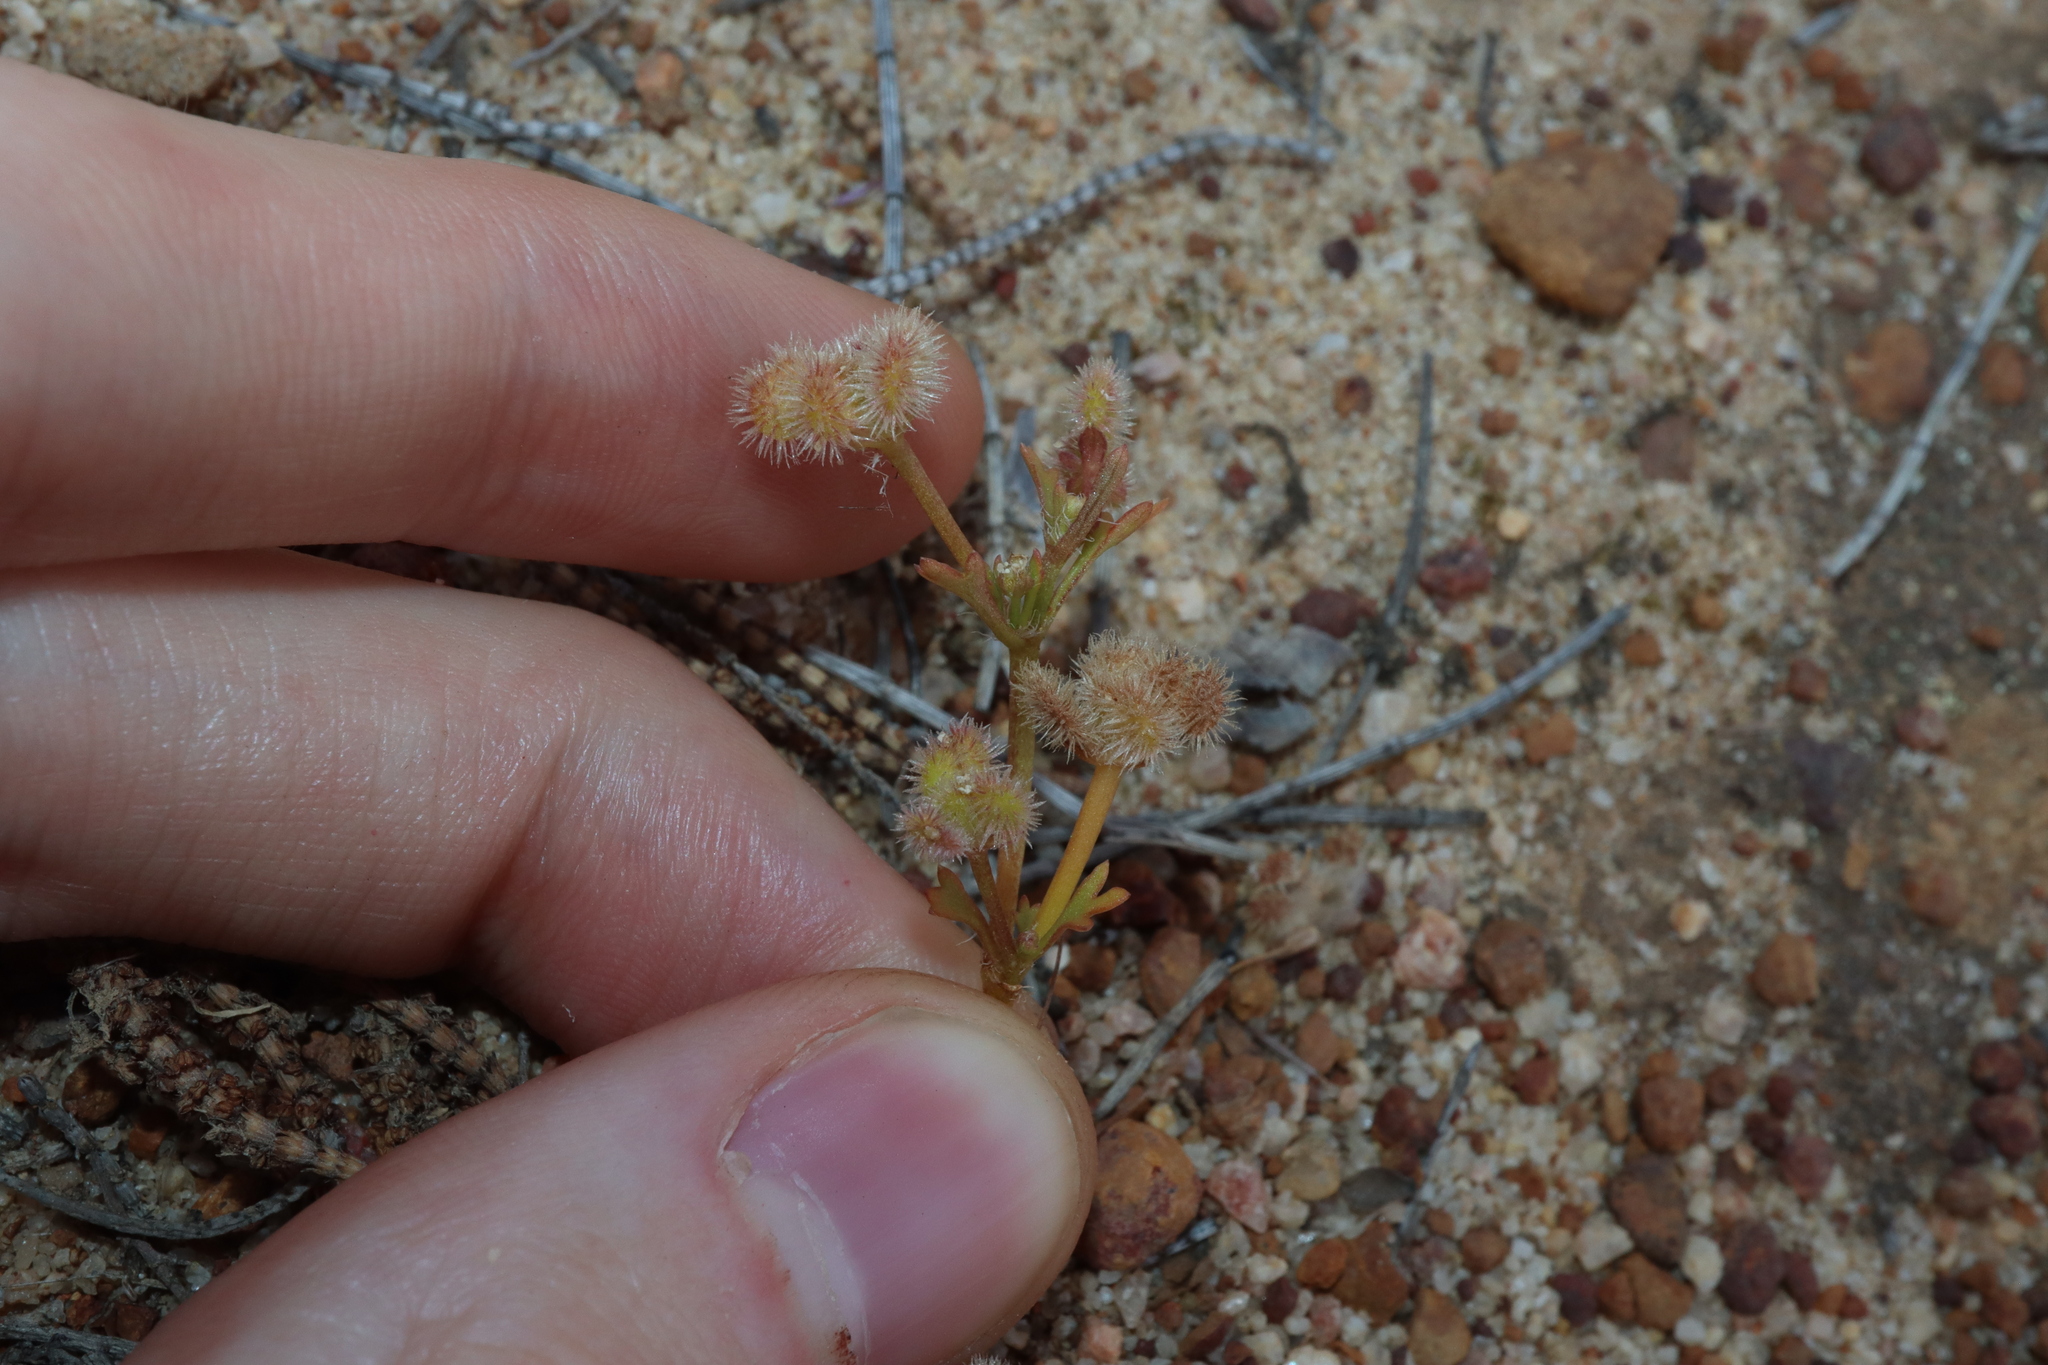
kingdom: Plantae
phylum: Tracheophyta
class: Magnoliopsida
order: Apiales
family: Araliaceae
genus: Trachymene
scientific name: Trachymene cyanopetala
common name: Purple trachymene
